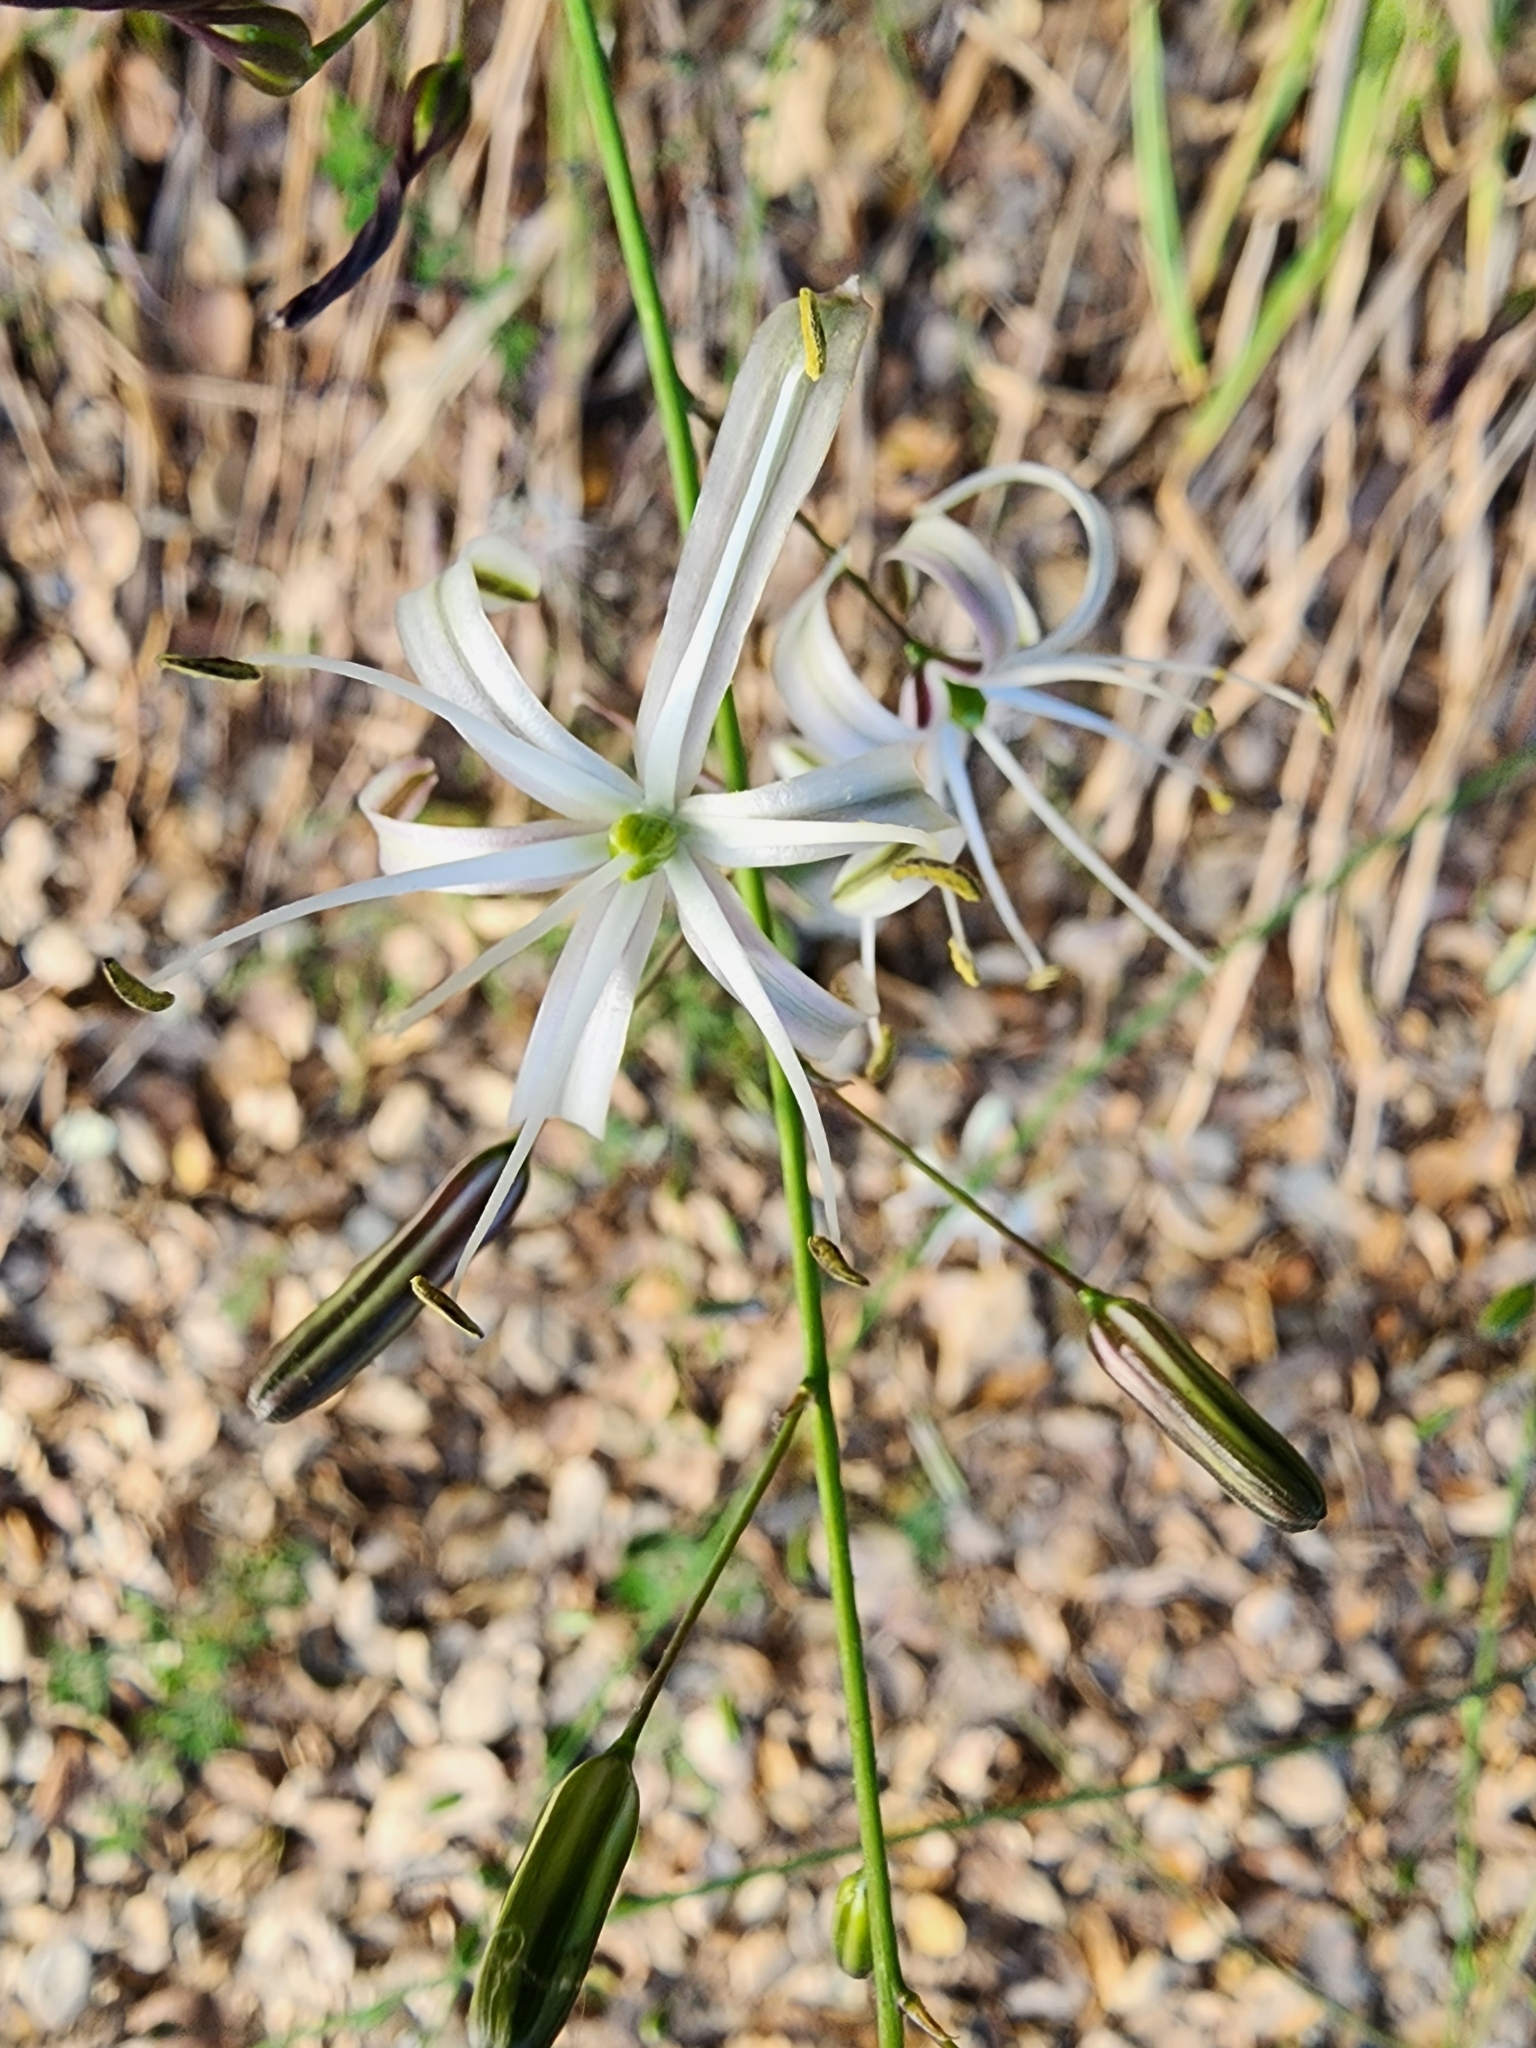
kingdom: Plantae
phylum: Tracheophyta
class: Liliopsida
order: Asparagales
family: Asparagaceae
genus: Chlorogalum
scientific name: Chlorogalum pomeridianum
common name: Amole
